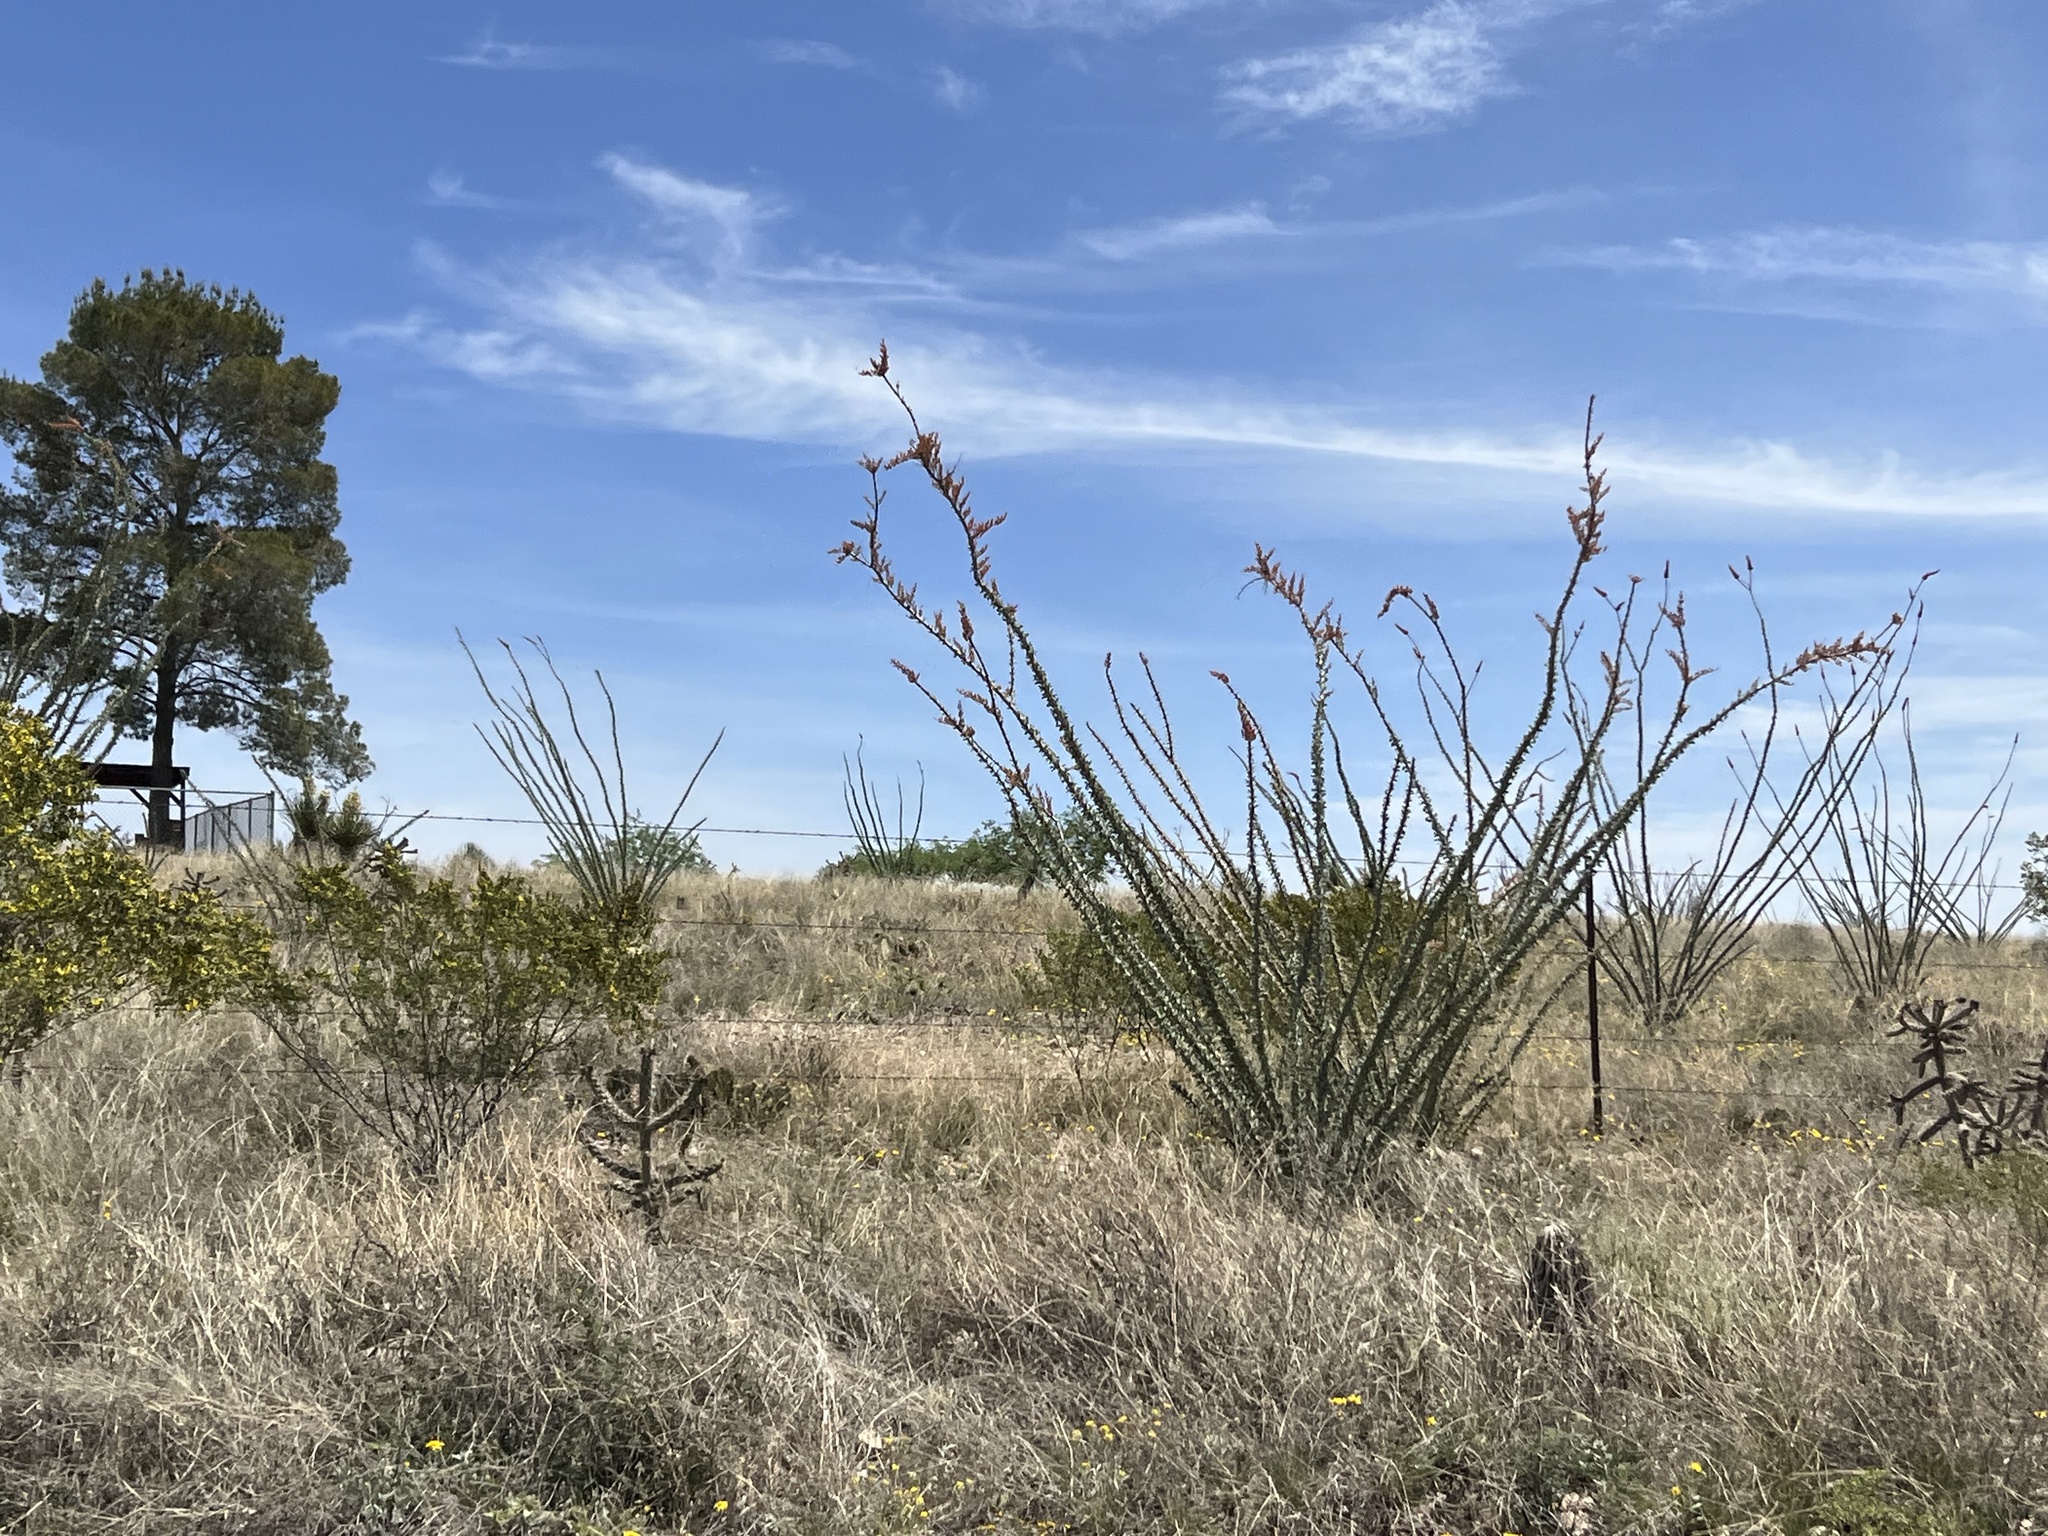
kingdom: Plantae
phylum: Tracheophyta
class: Magnoliopsida
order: Ericales
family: Fouquieriaceae
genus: Fouquieria
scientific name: Fouquieria splendens
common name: Vine-cactus
